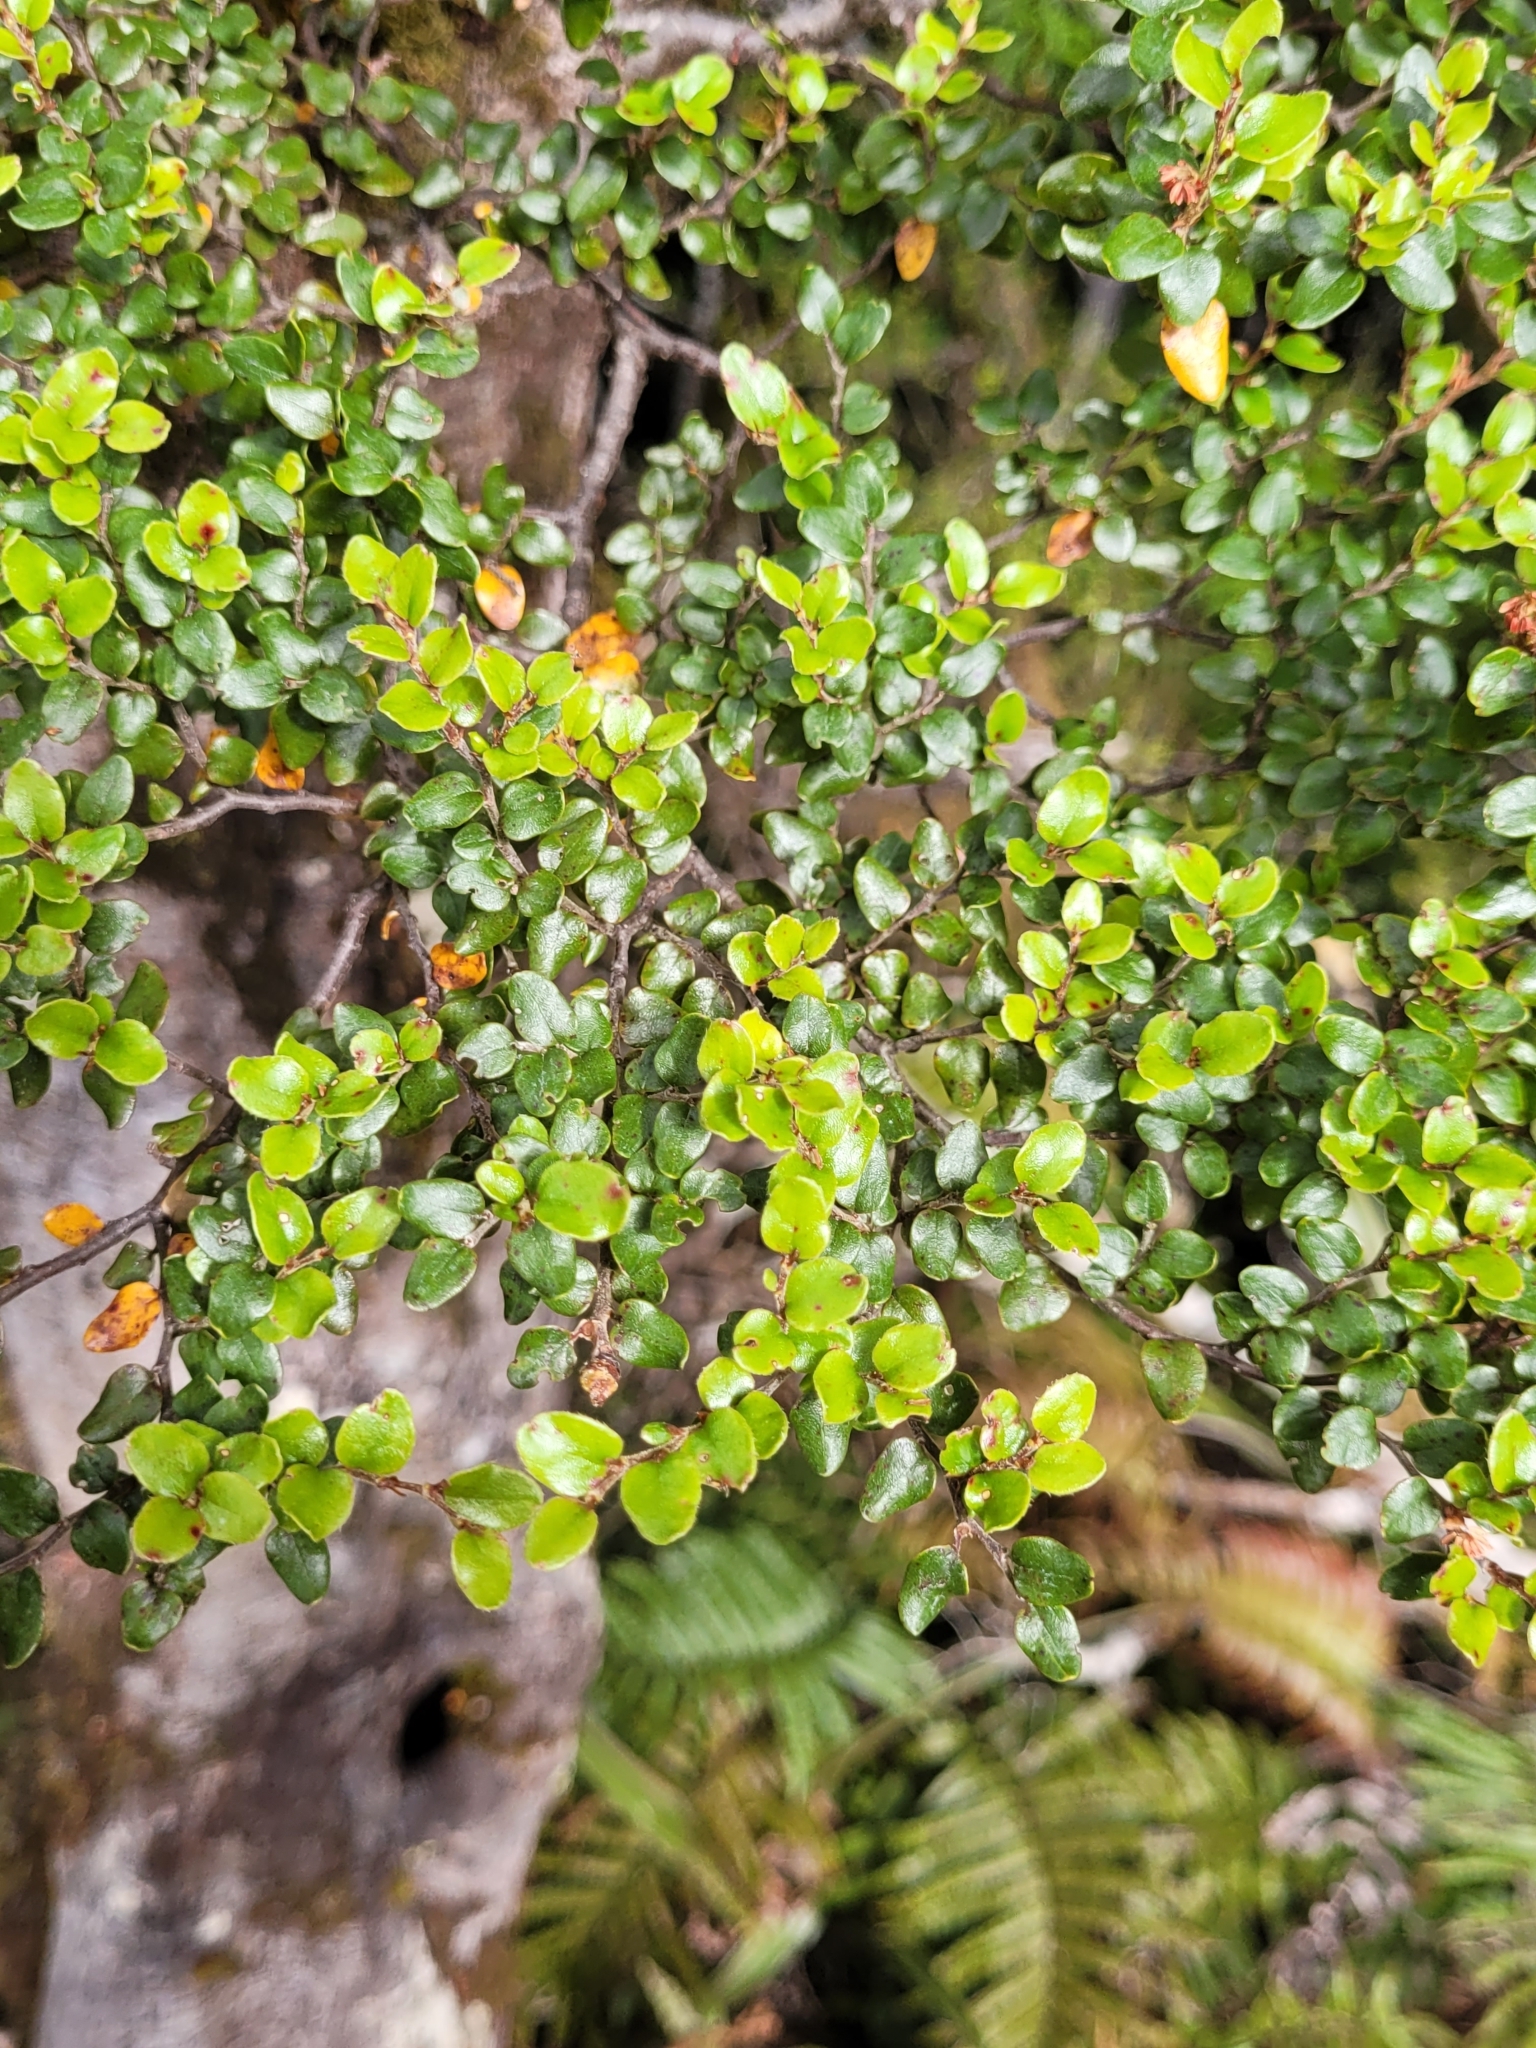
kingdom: Plantae
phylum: Tracheophyta
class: Magnoliopsida
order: Fagales
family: Nothofagaceae
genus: Nothofagus
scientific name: Nothofagus cliffortioides
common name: Mountain beech
